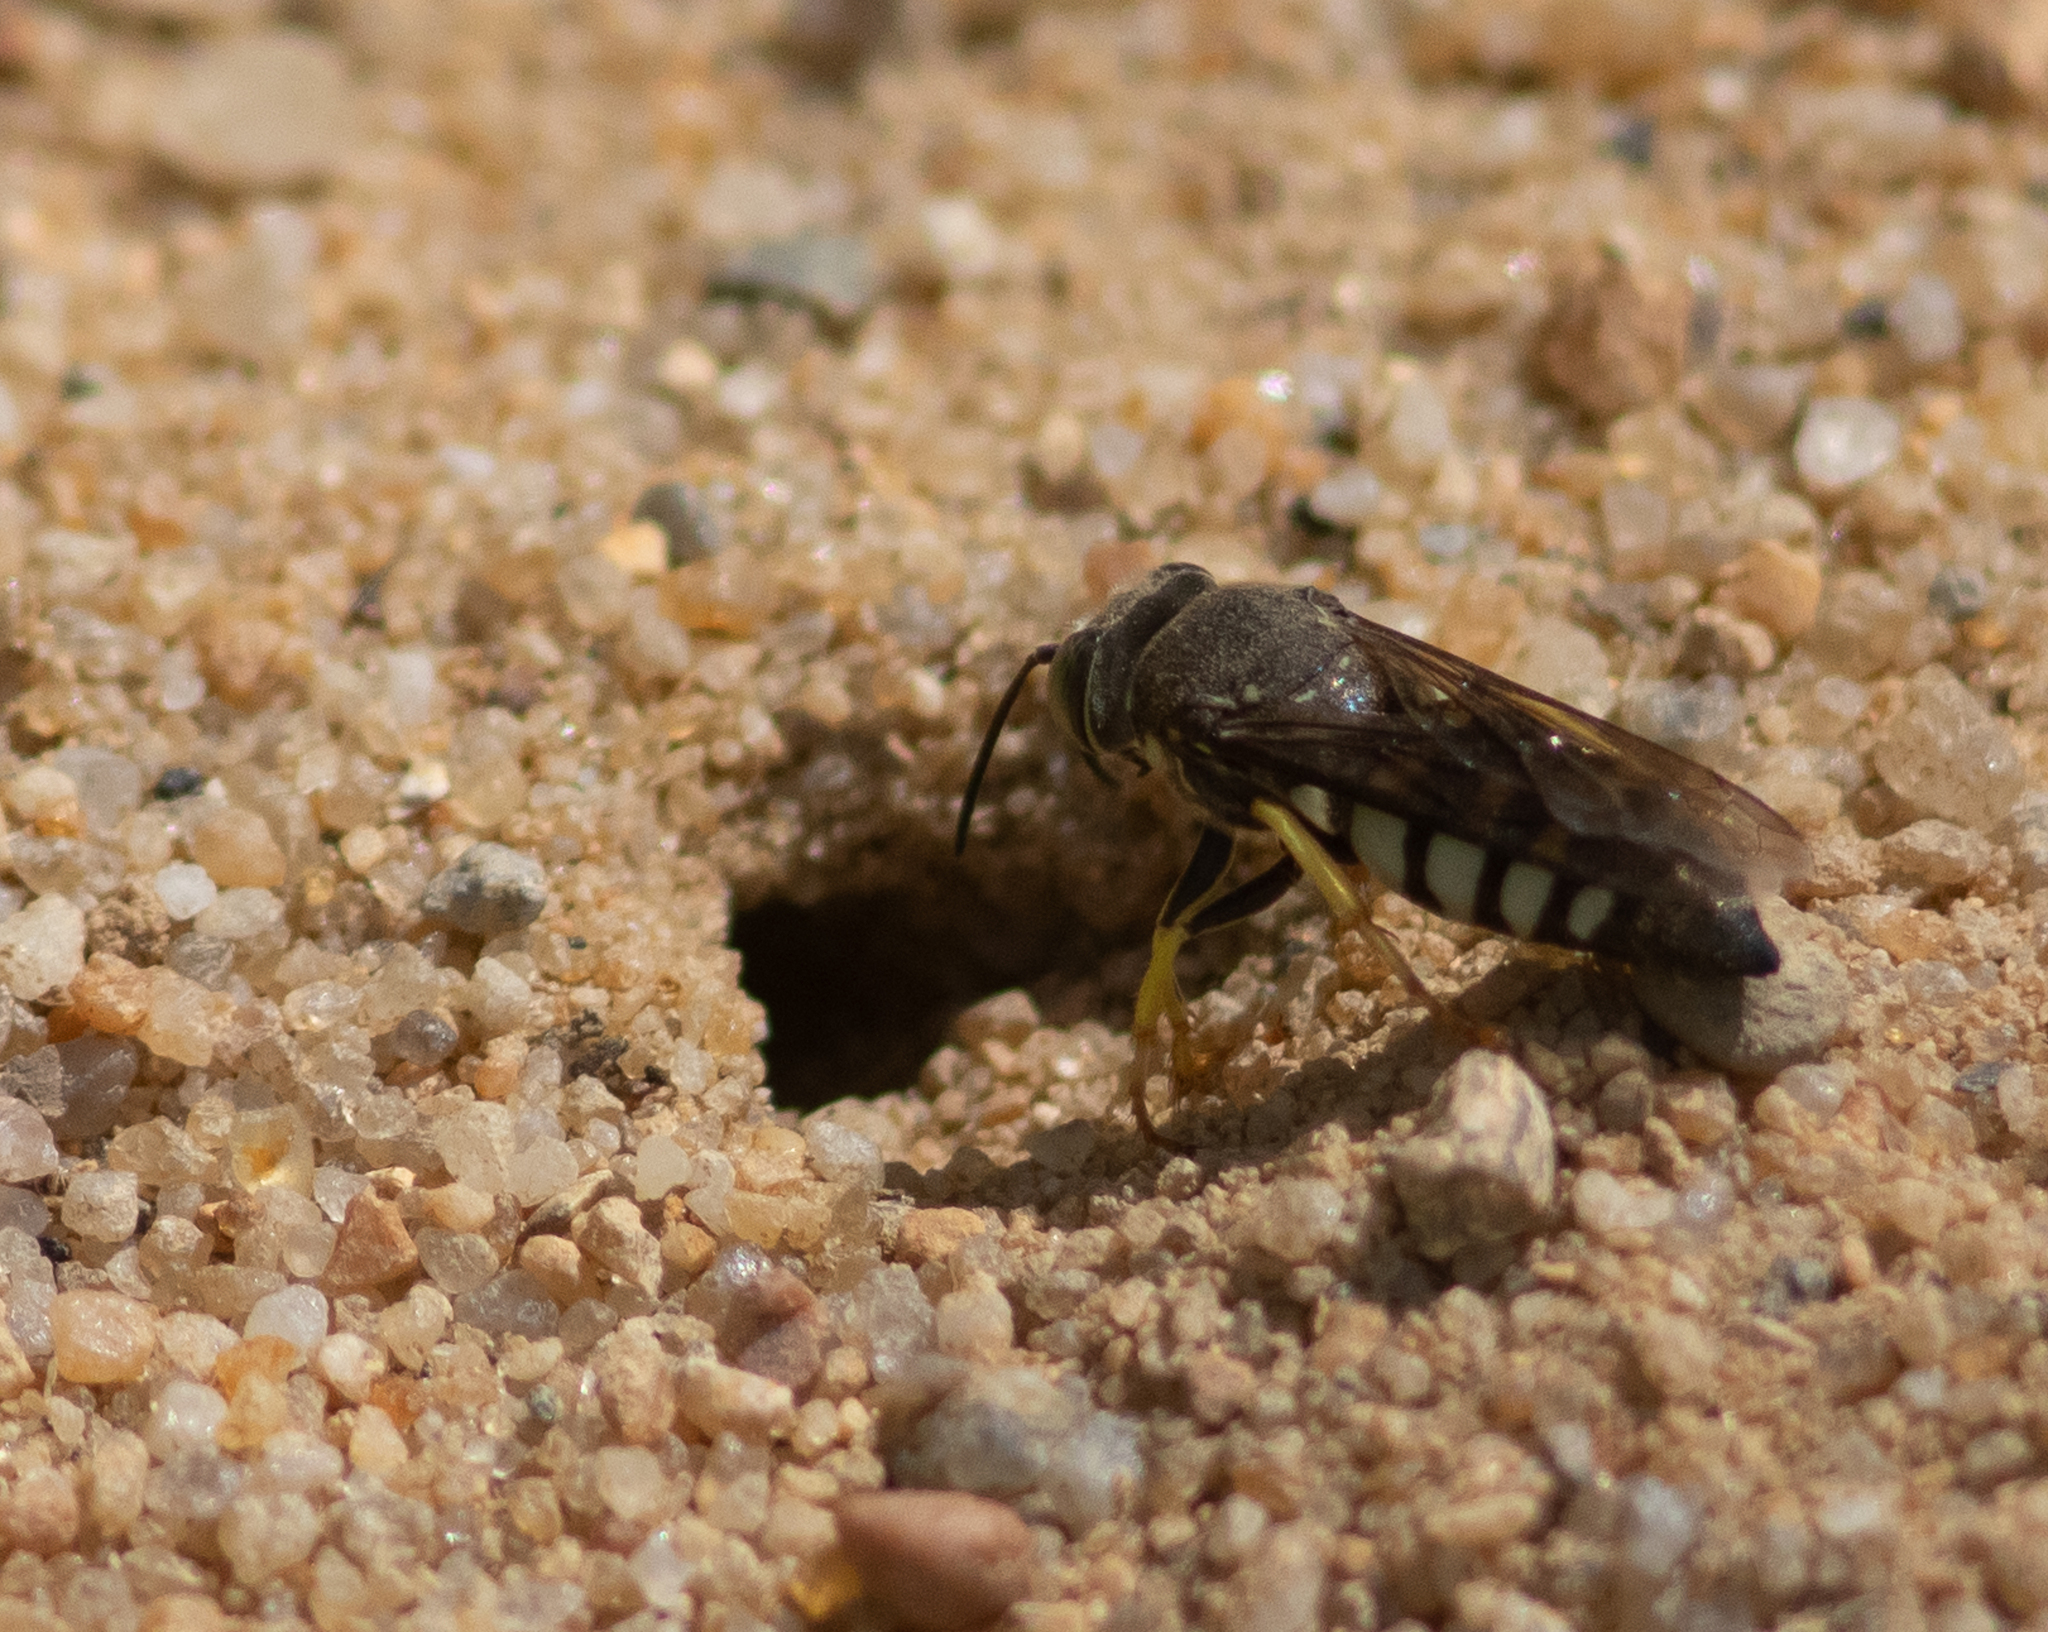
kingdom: Animalia
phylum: Arthropoda
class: Insecta
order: Hymenoptera
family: Crabronidae
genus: Bicyrtes
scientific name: Bicyrtes quadrifasciatus
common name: Four-banded stink bug hunter wasp
